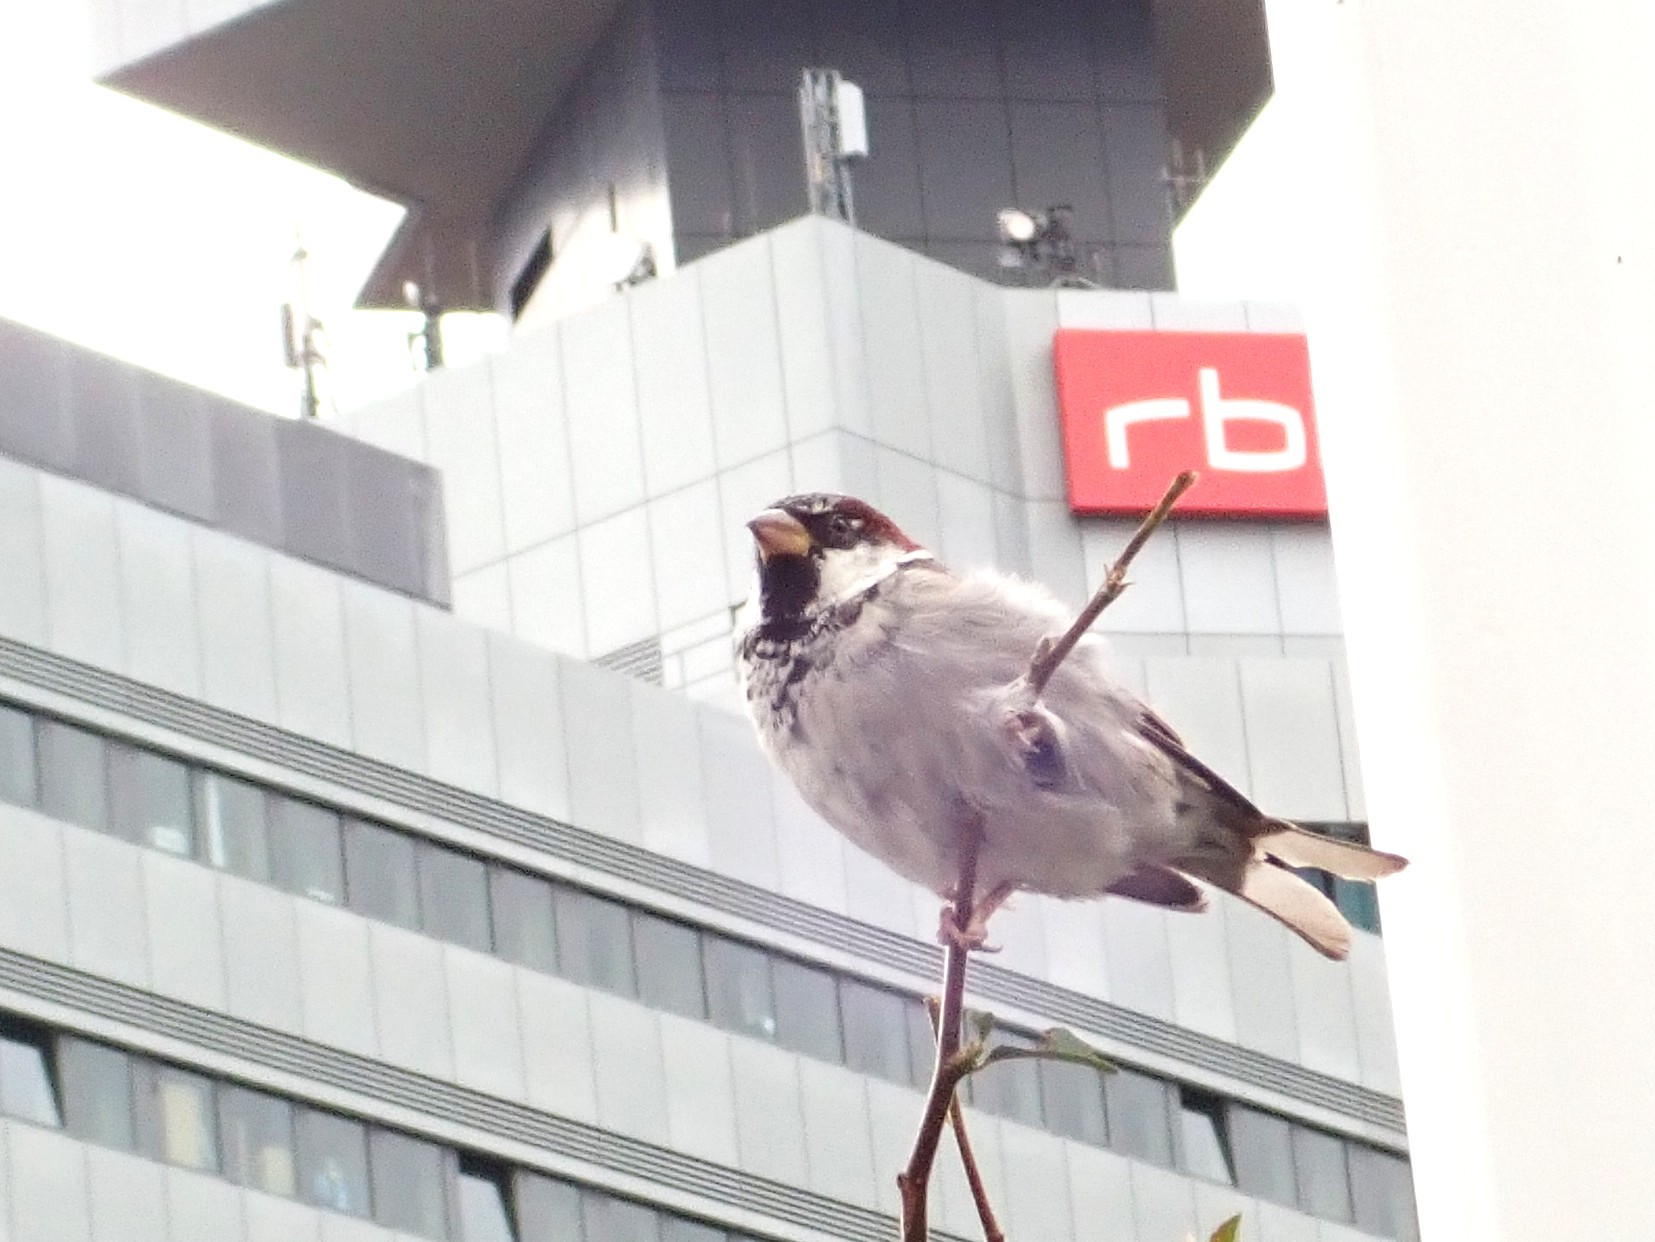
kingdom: Animalia
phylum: Chordata
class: Aves
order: Passeriformes
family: Passeridae
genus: Passer
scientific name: Passer domesticus
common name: House sparrow
